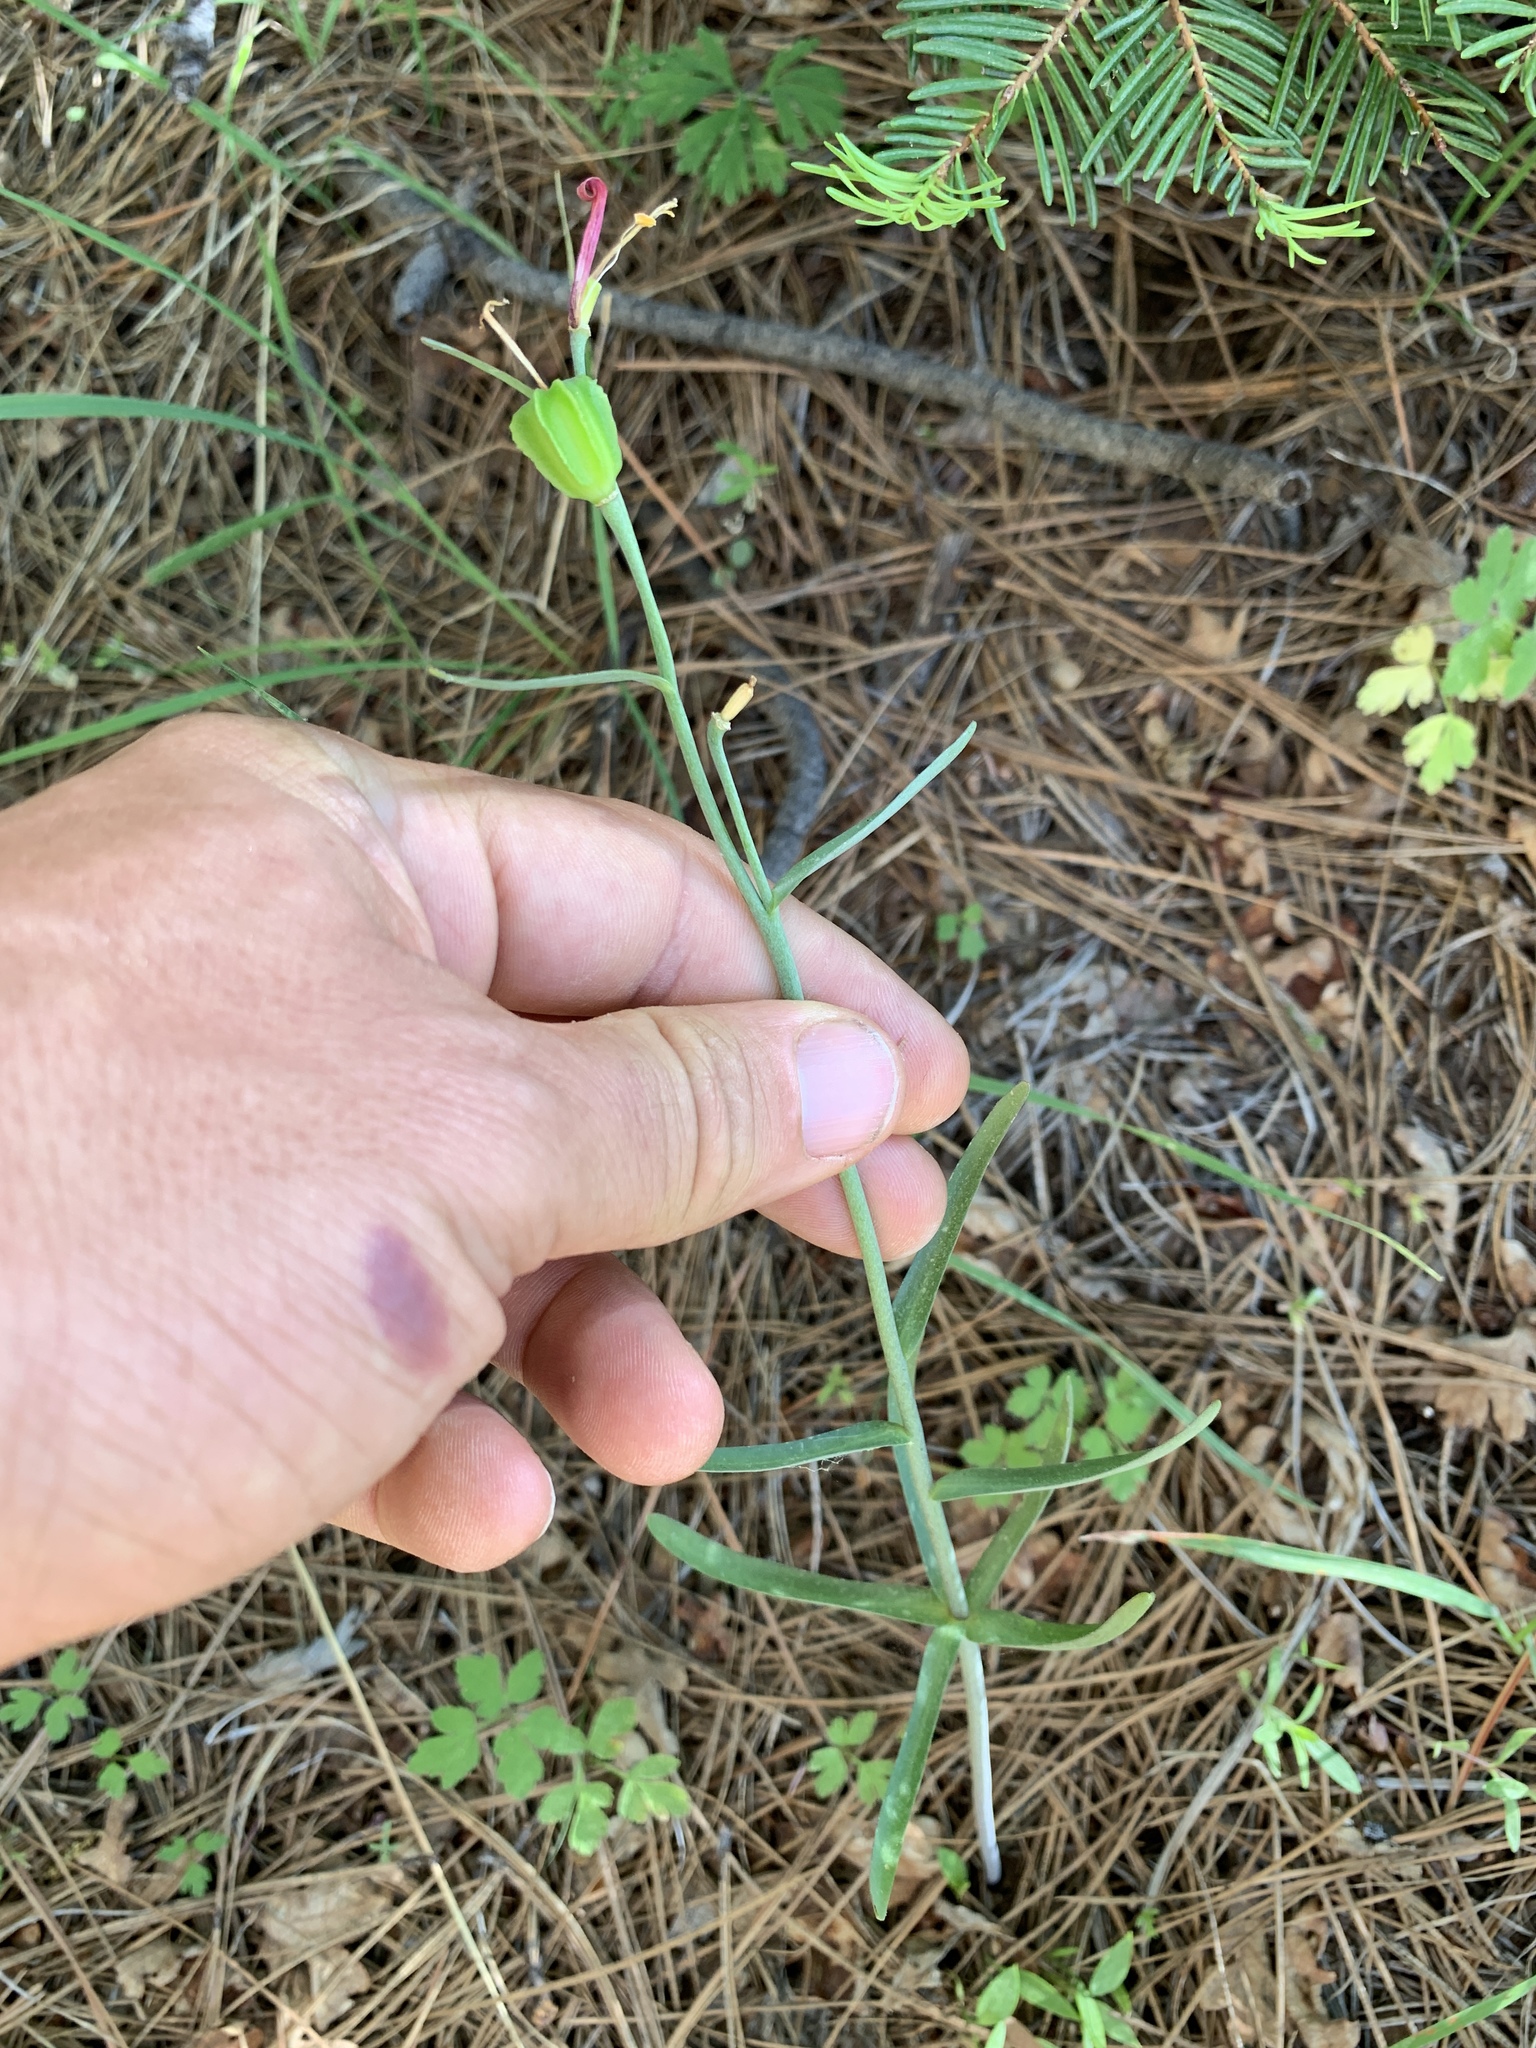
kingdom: Plantae
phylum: Tracheophyta
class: Liliopsida
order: Liliales
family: Liliaceae
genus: Fritillaria
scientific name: Fritillaria recurva
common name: Scarlet fritillary
